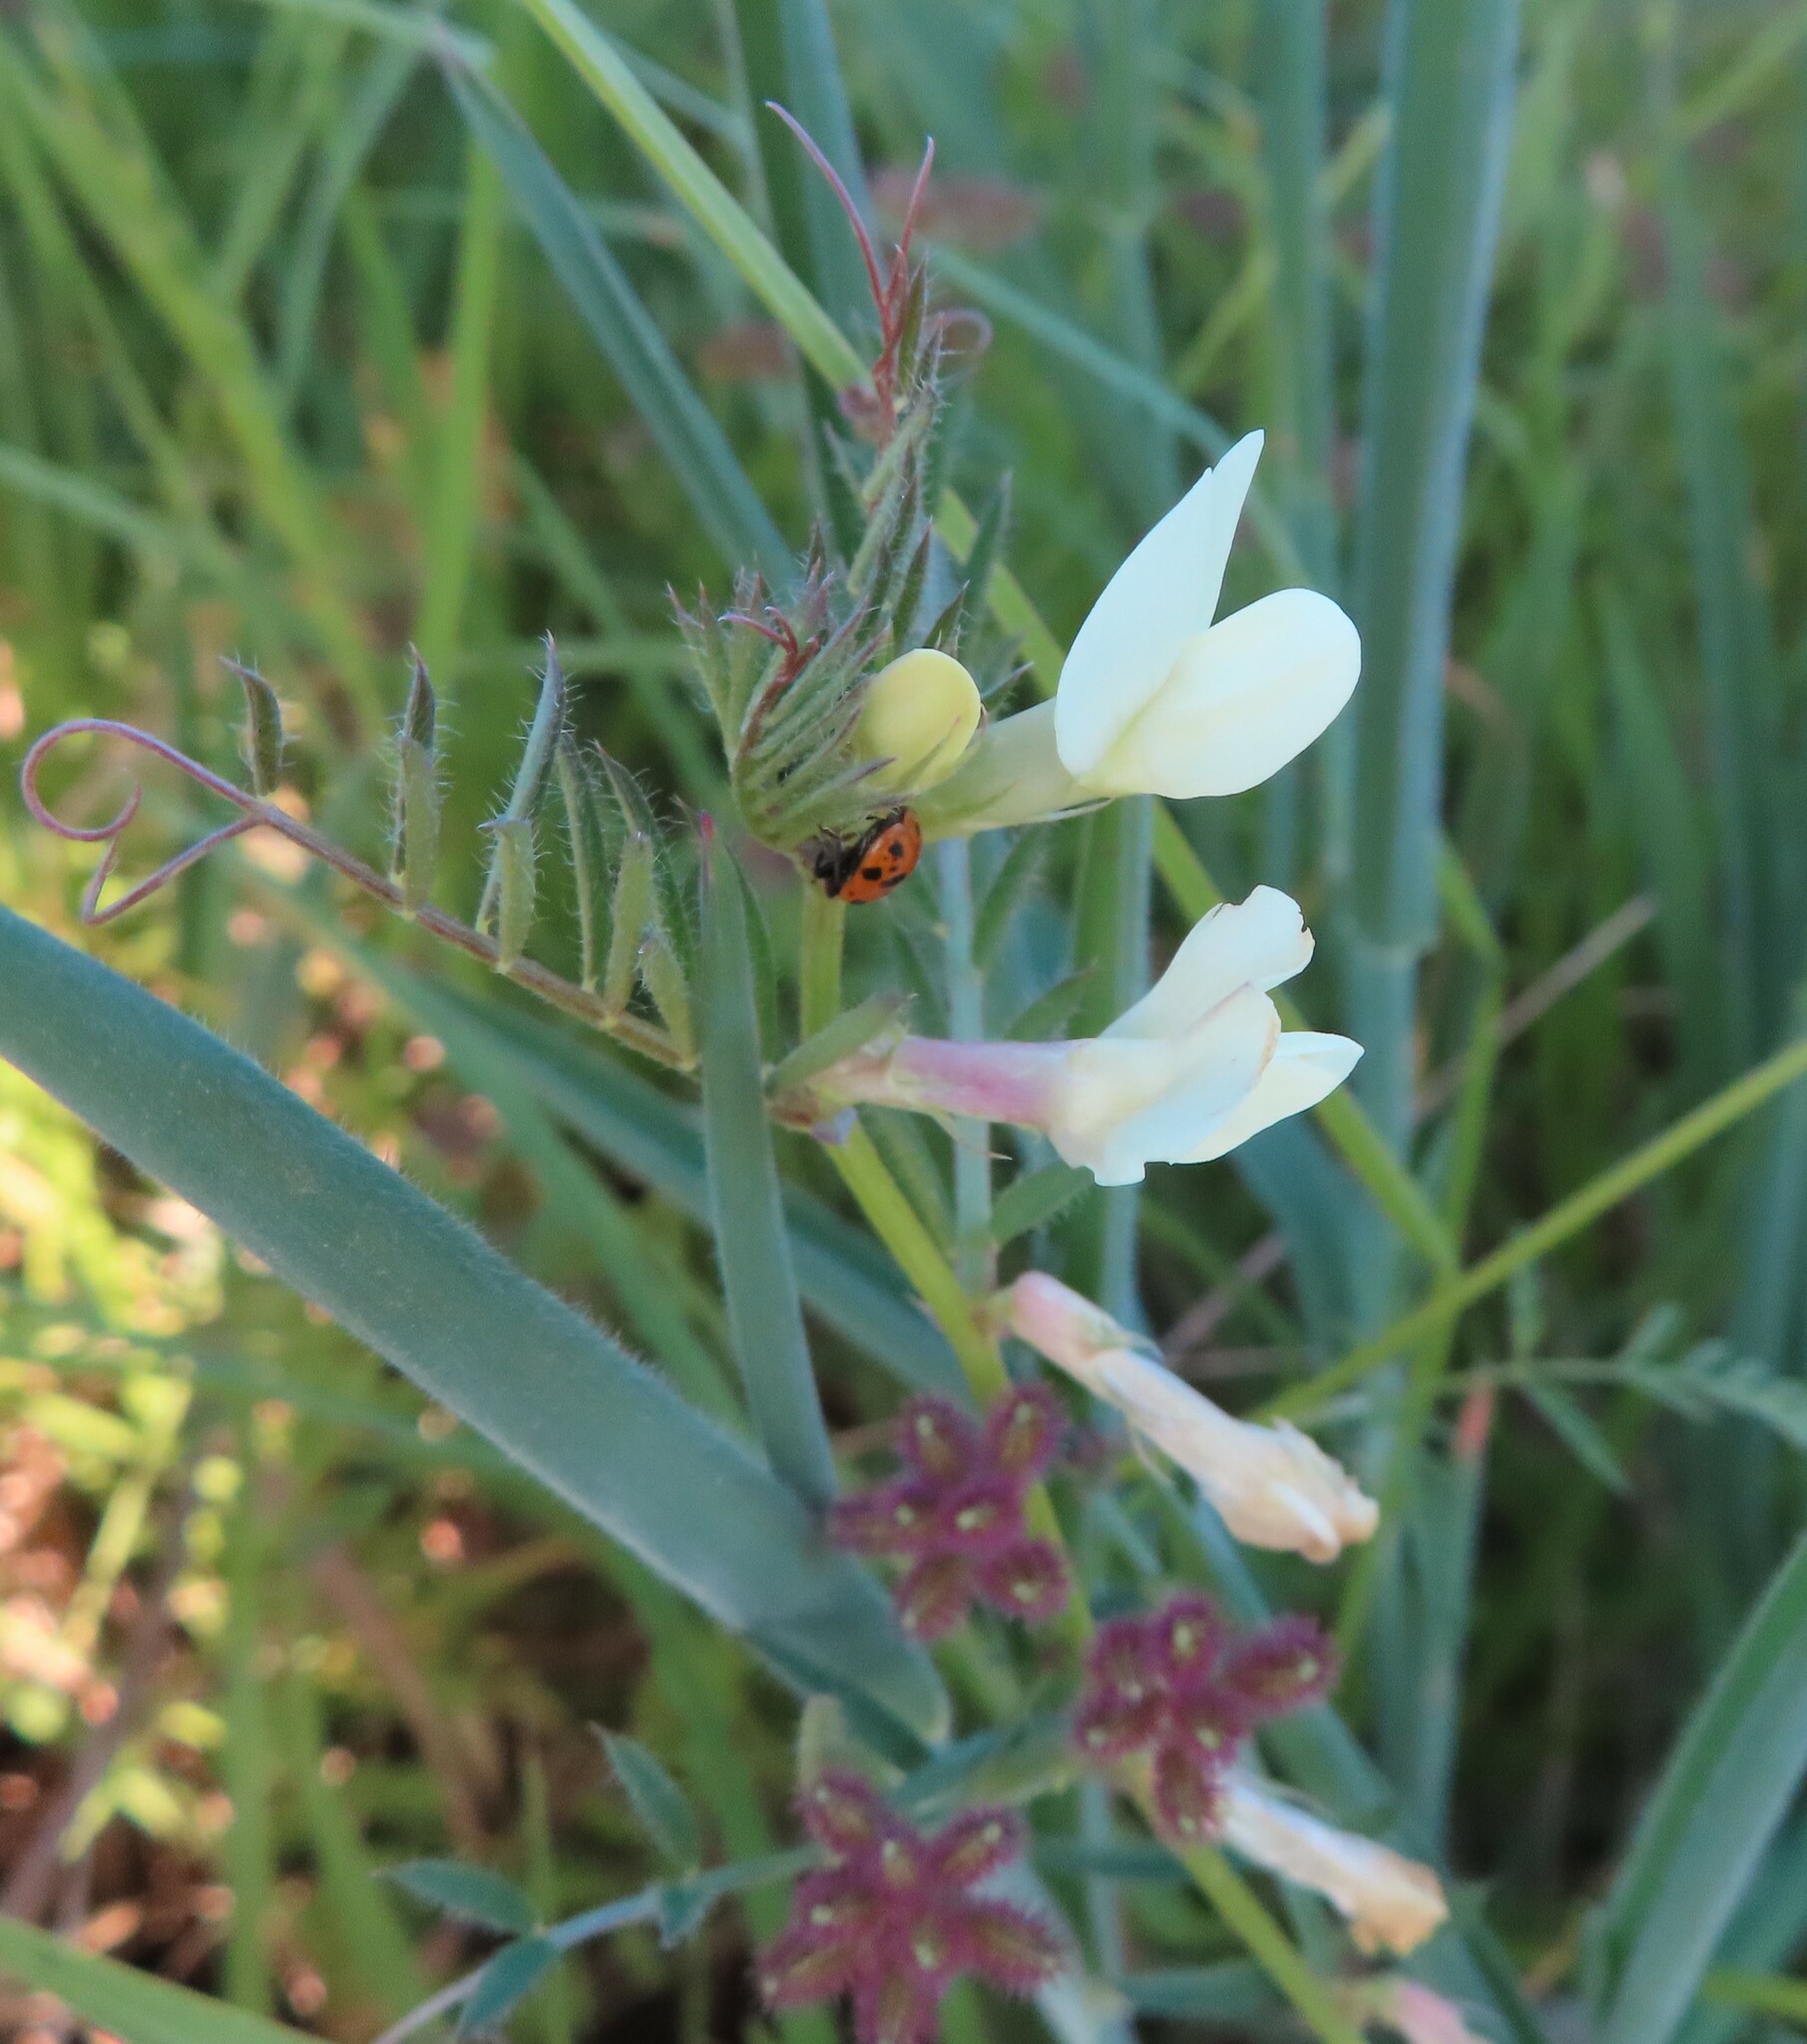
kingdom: Plantae
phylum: Tracheophyta
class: Magnoliopsida
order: Fabales
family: Fabaceae
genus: Vicia
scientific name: Vicia lutea
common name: Smooth yellow vetch
